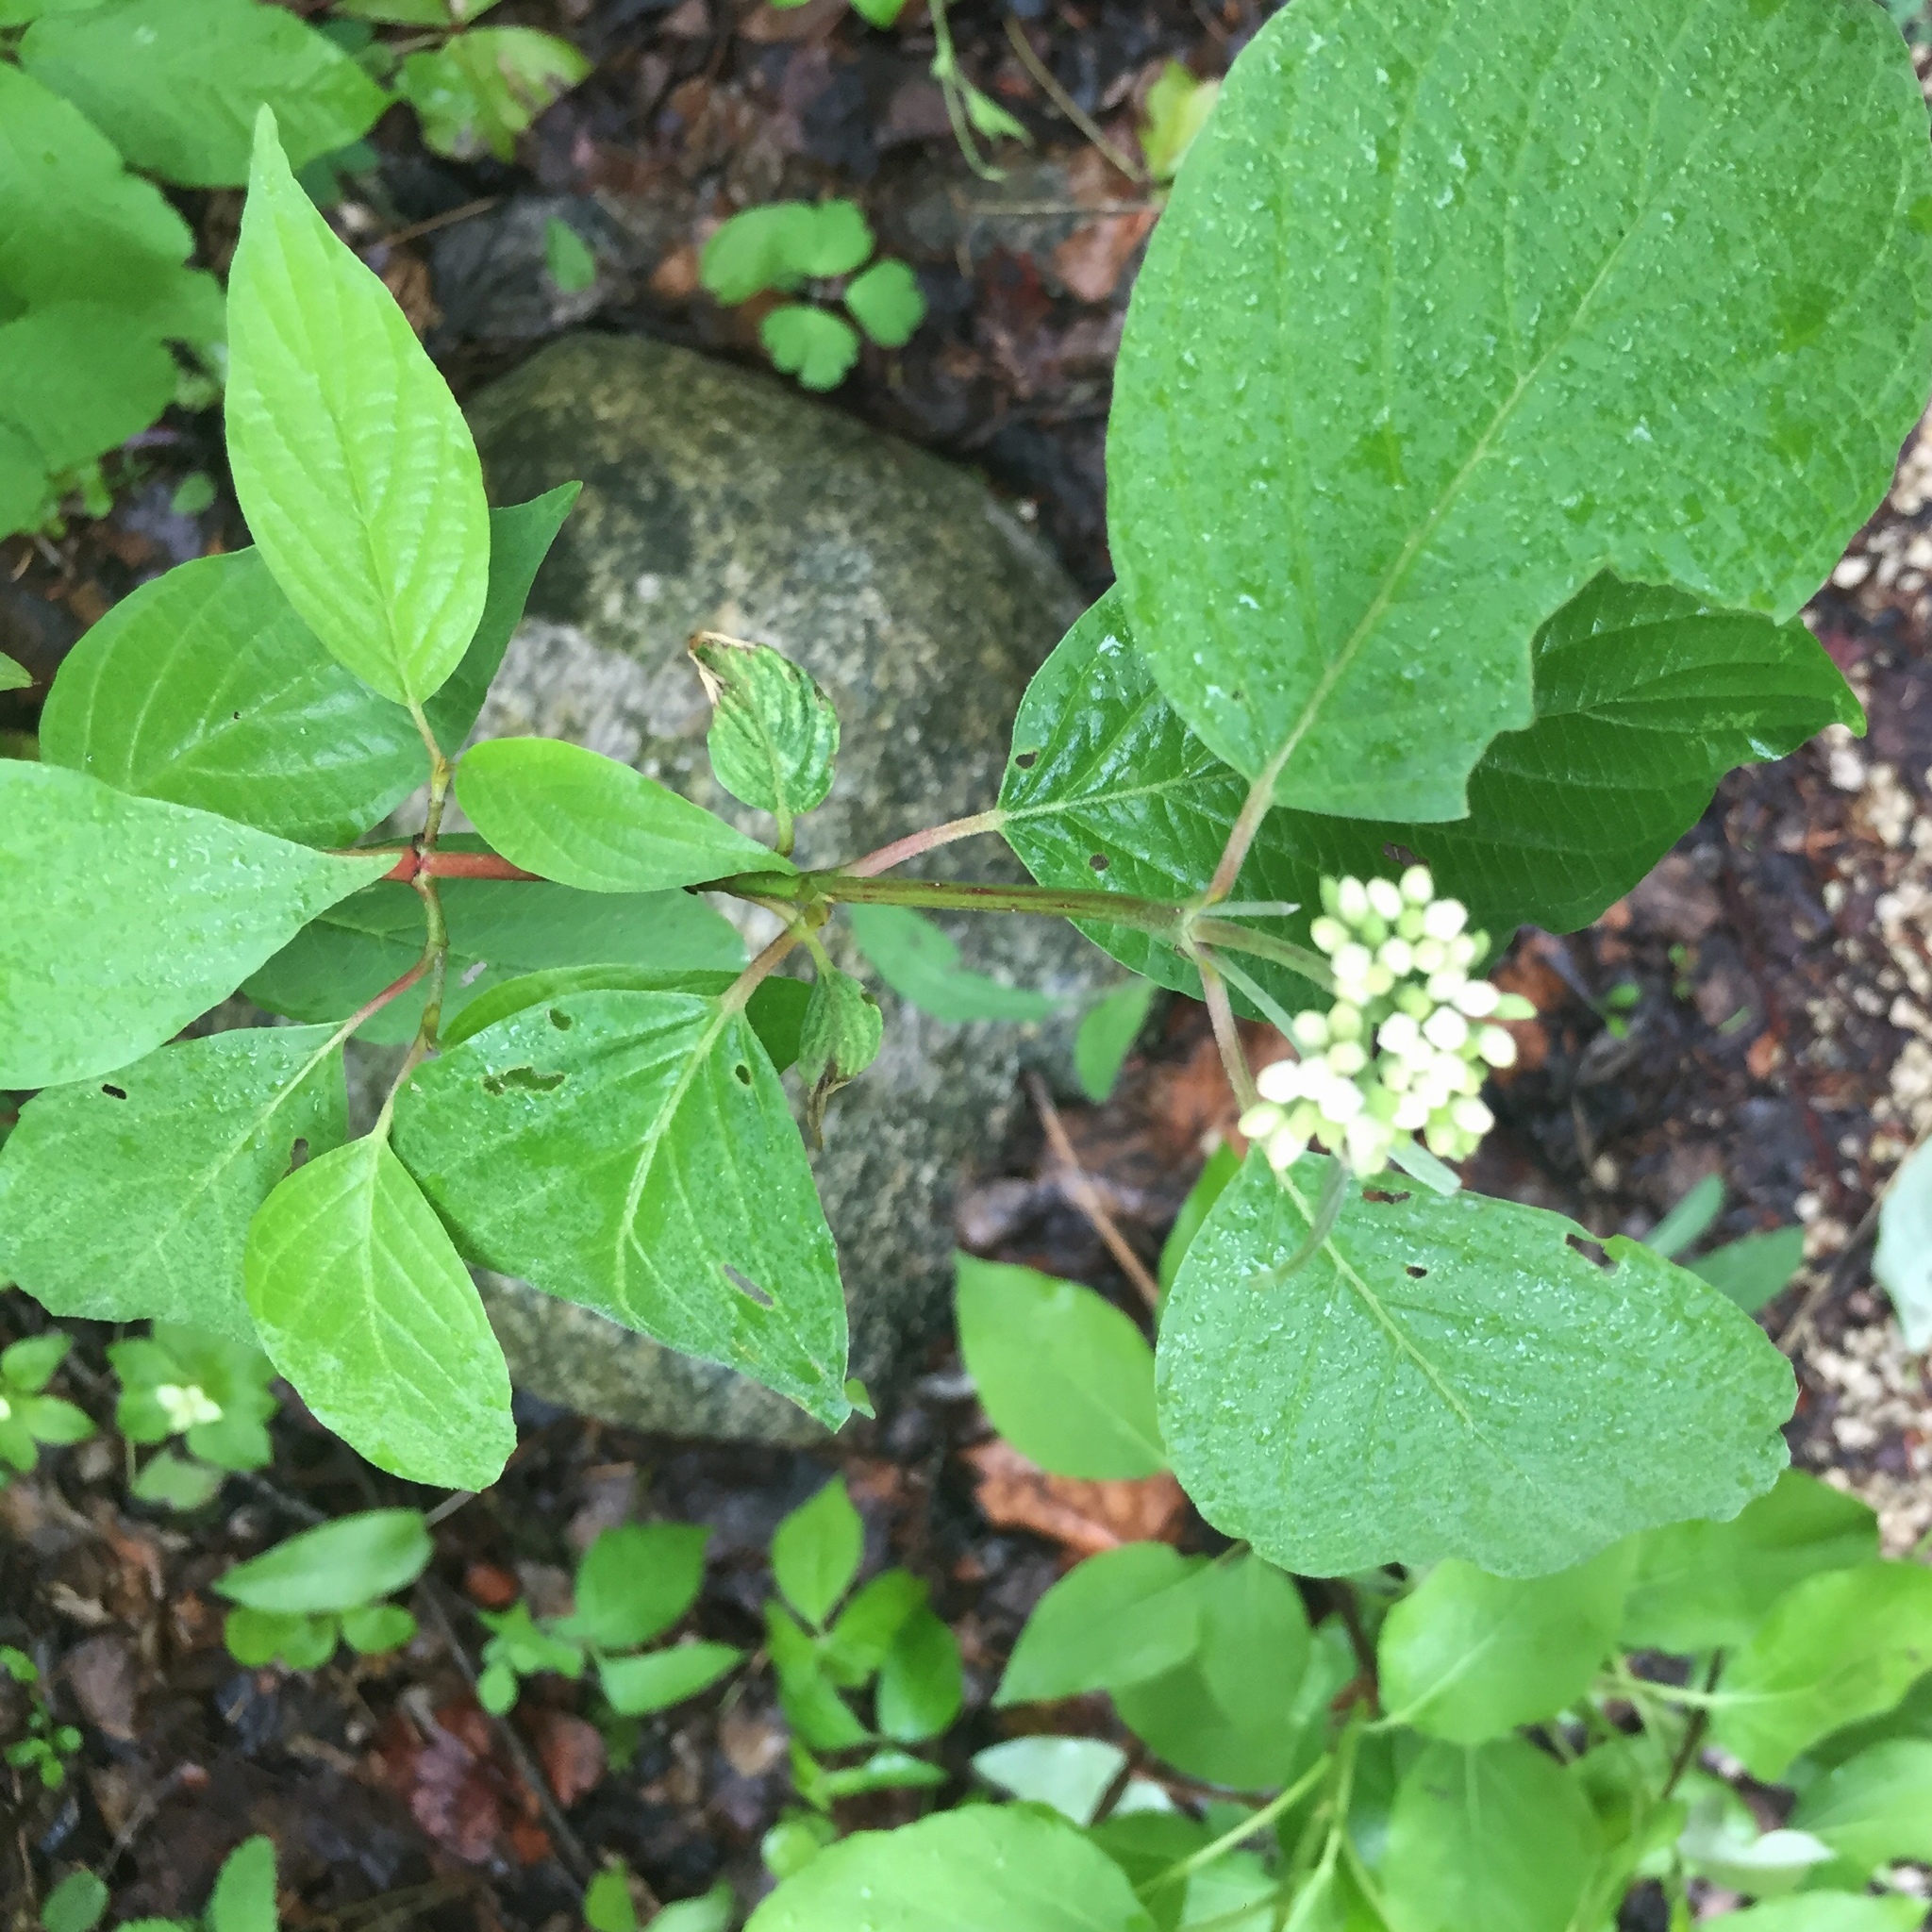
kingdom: Plantae
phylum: Tracheophyta
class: Magnoliopsida
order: Cornales
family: Cornaceae
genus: Cornus
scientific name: Cornus sericea
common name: Red-osier dogwood
